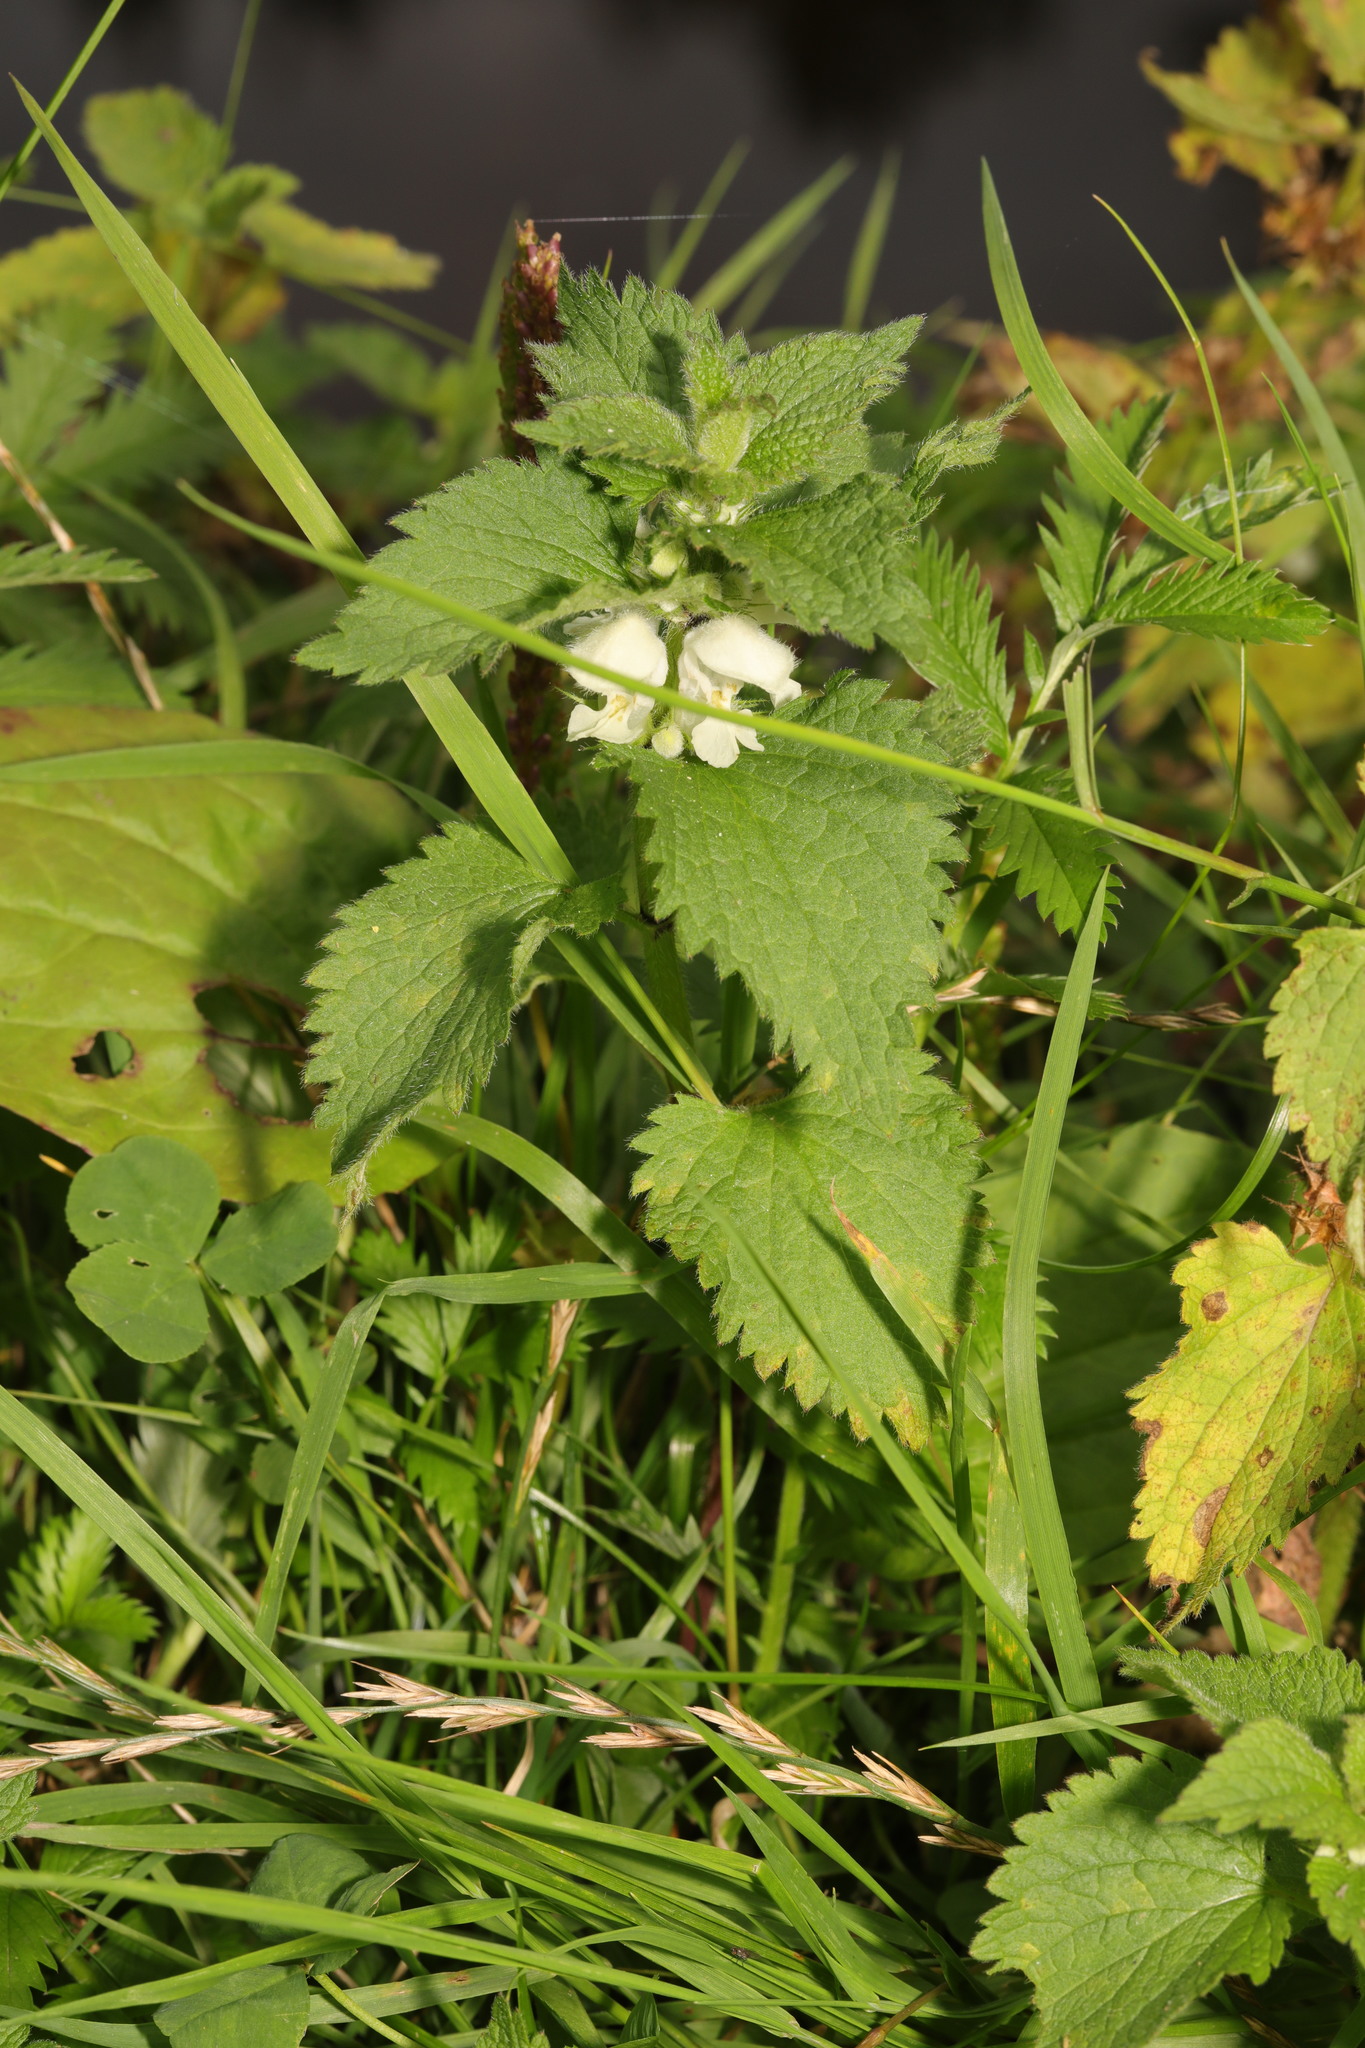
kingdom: Plantae
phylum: Tracheophyta
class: Magnoliopsida
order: Lamiales
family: Lamiaceae
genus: Lamium
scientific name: Lamium album
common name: White dead-nettle
